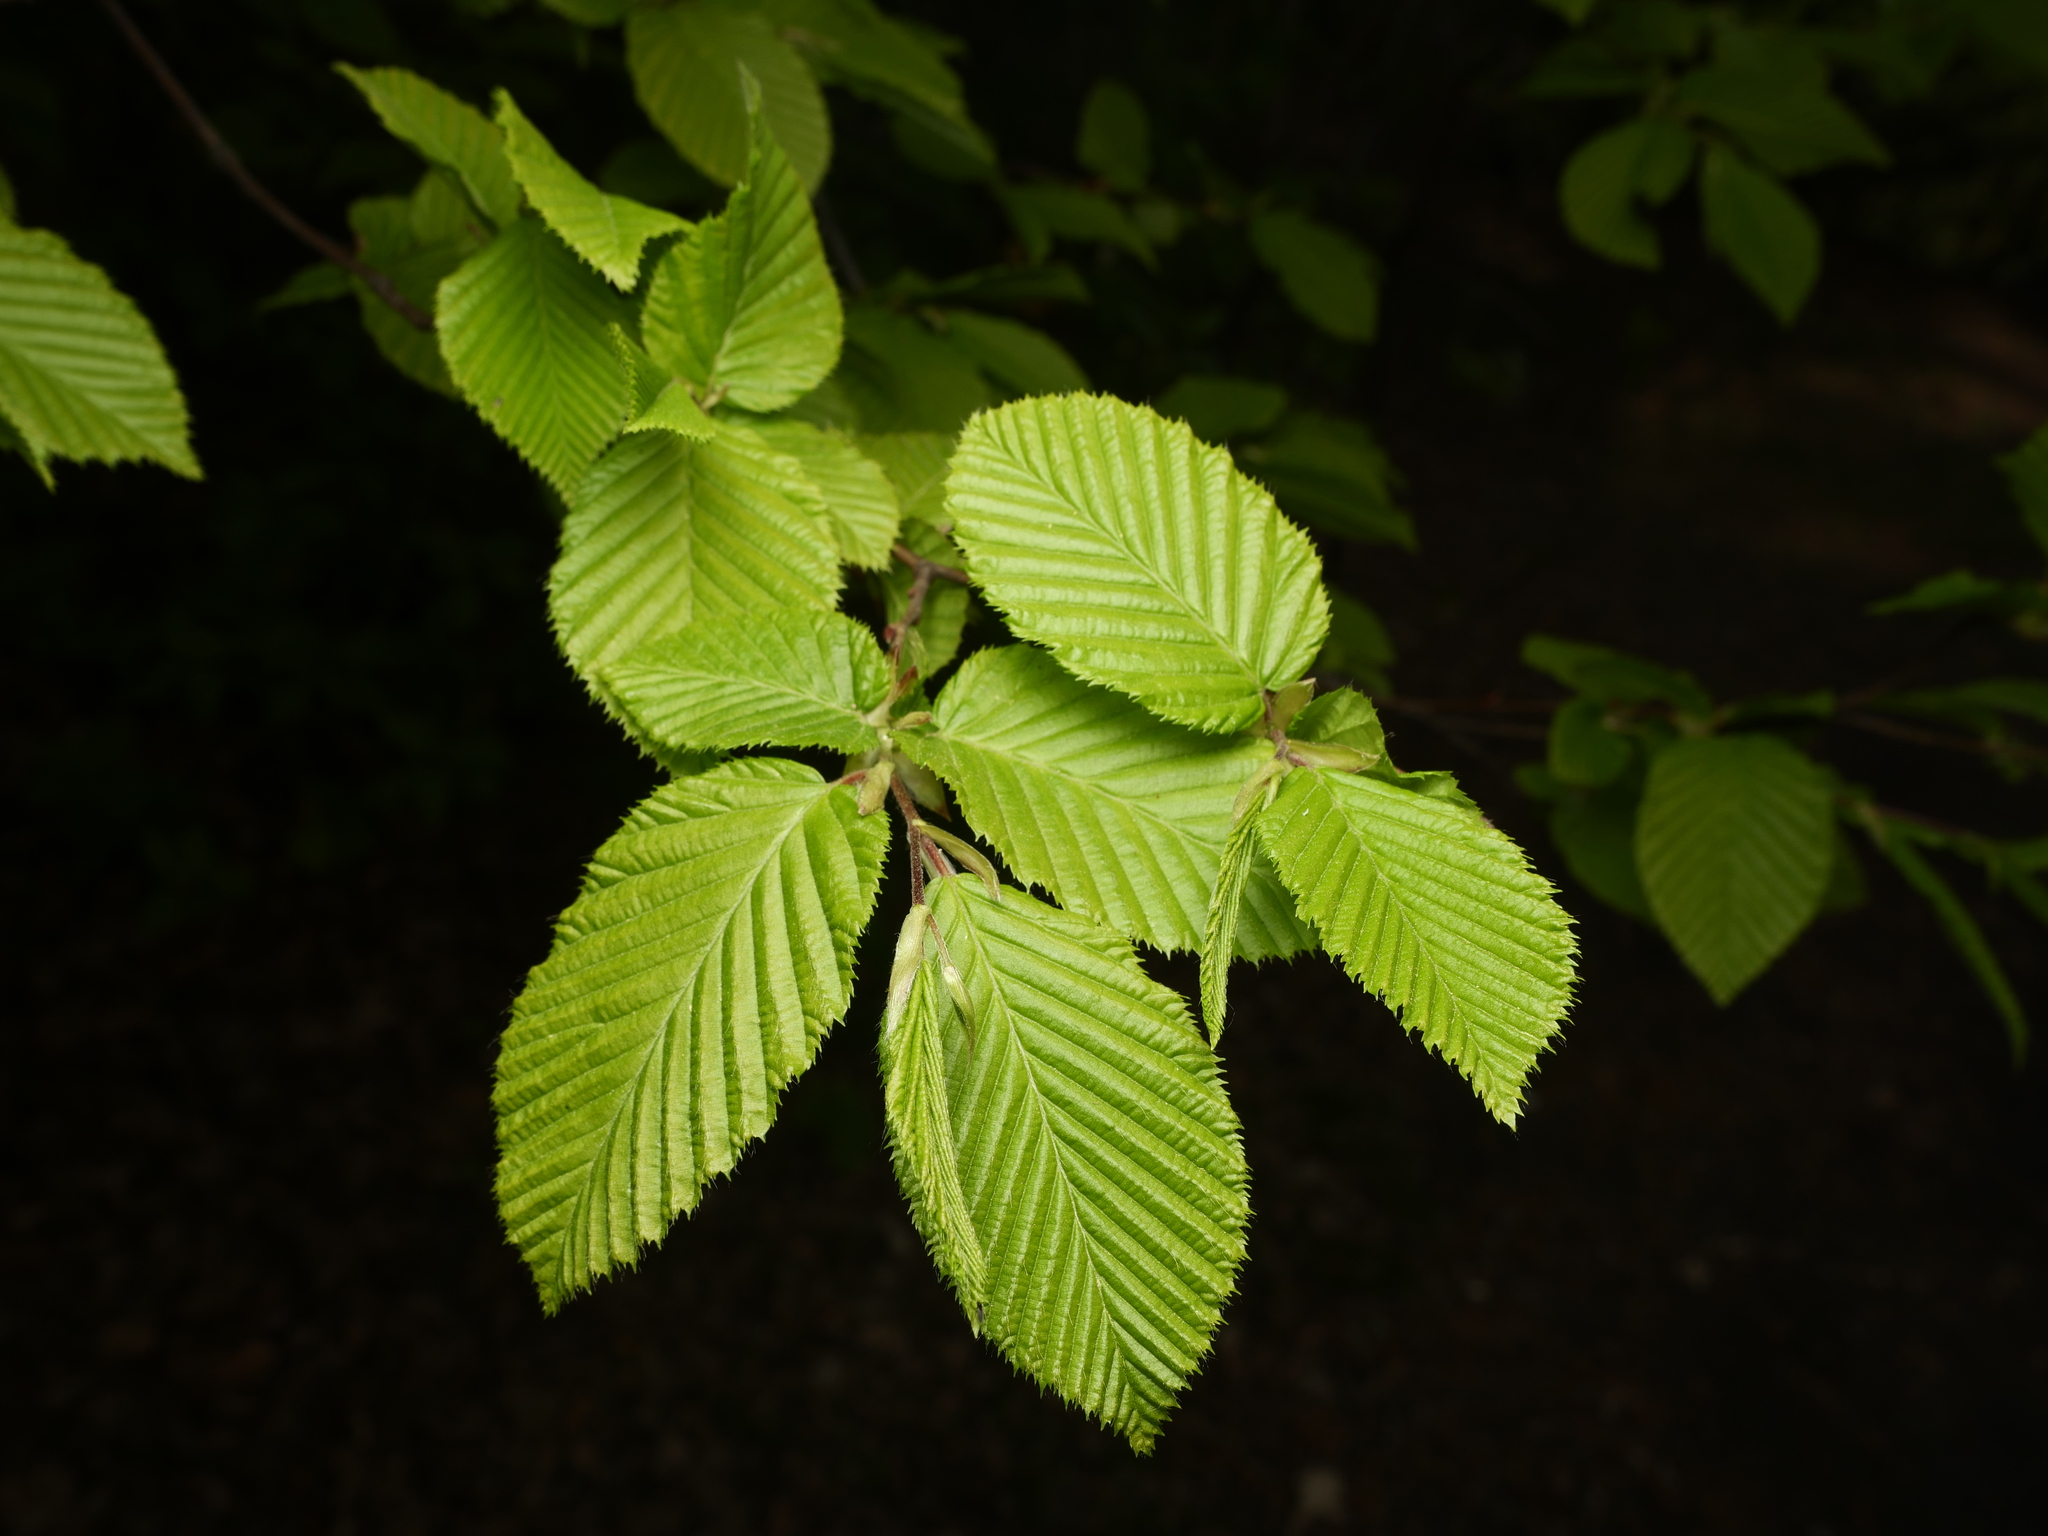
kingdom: Plantae
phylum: Tracheophyta
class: Magnoliopsida
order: Fagales
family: Betulaceae
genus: Carpinus
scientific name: Carpinus betulus
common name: Hornbeam
